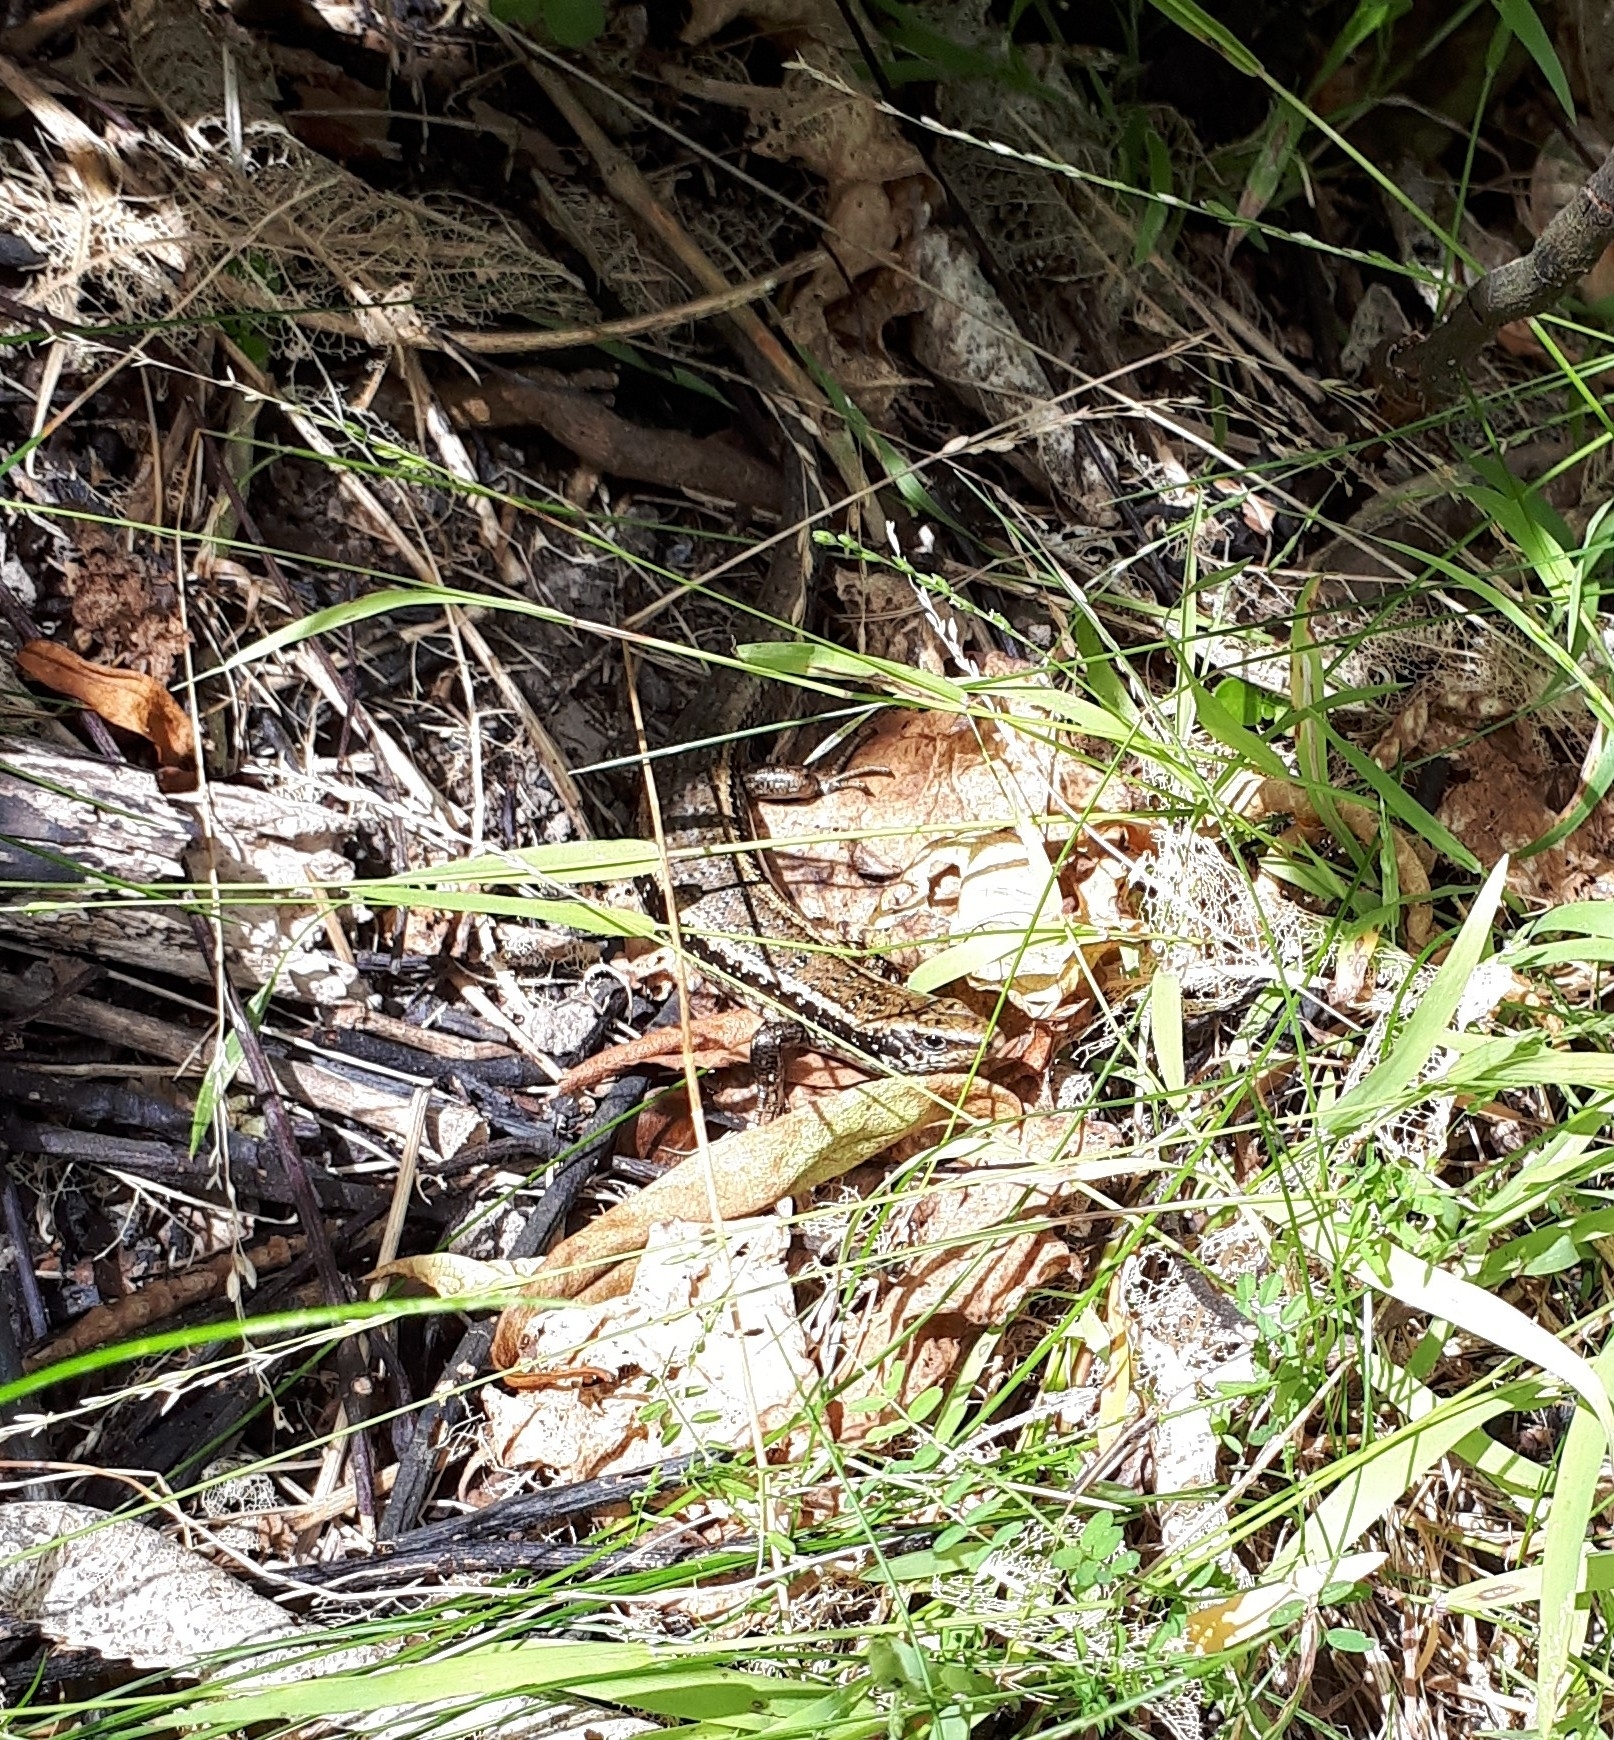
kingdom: Animalia
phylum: Chordata
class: Squamata
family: Scincidae
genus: Oligosoma
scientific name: Oligosoma kokowai
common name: Northern spotted skink
